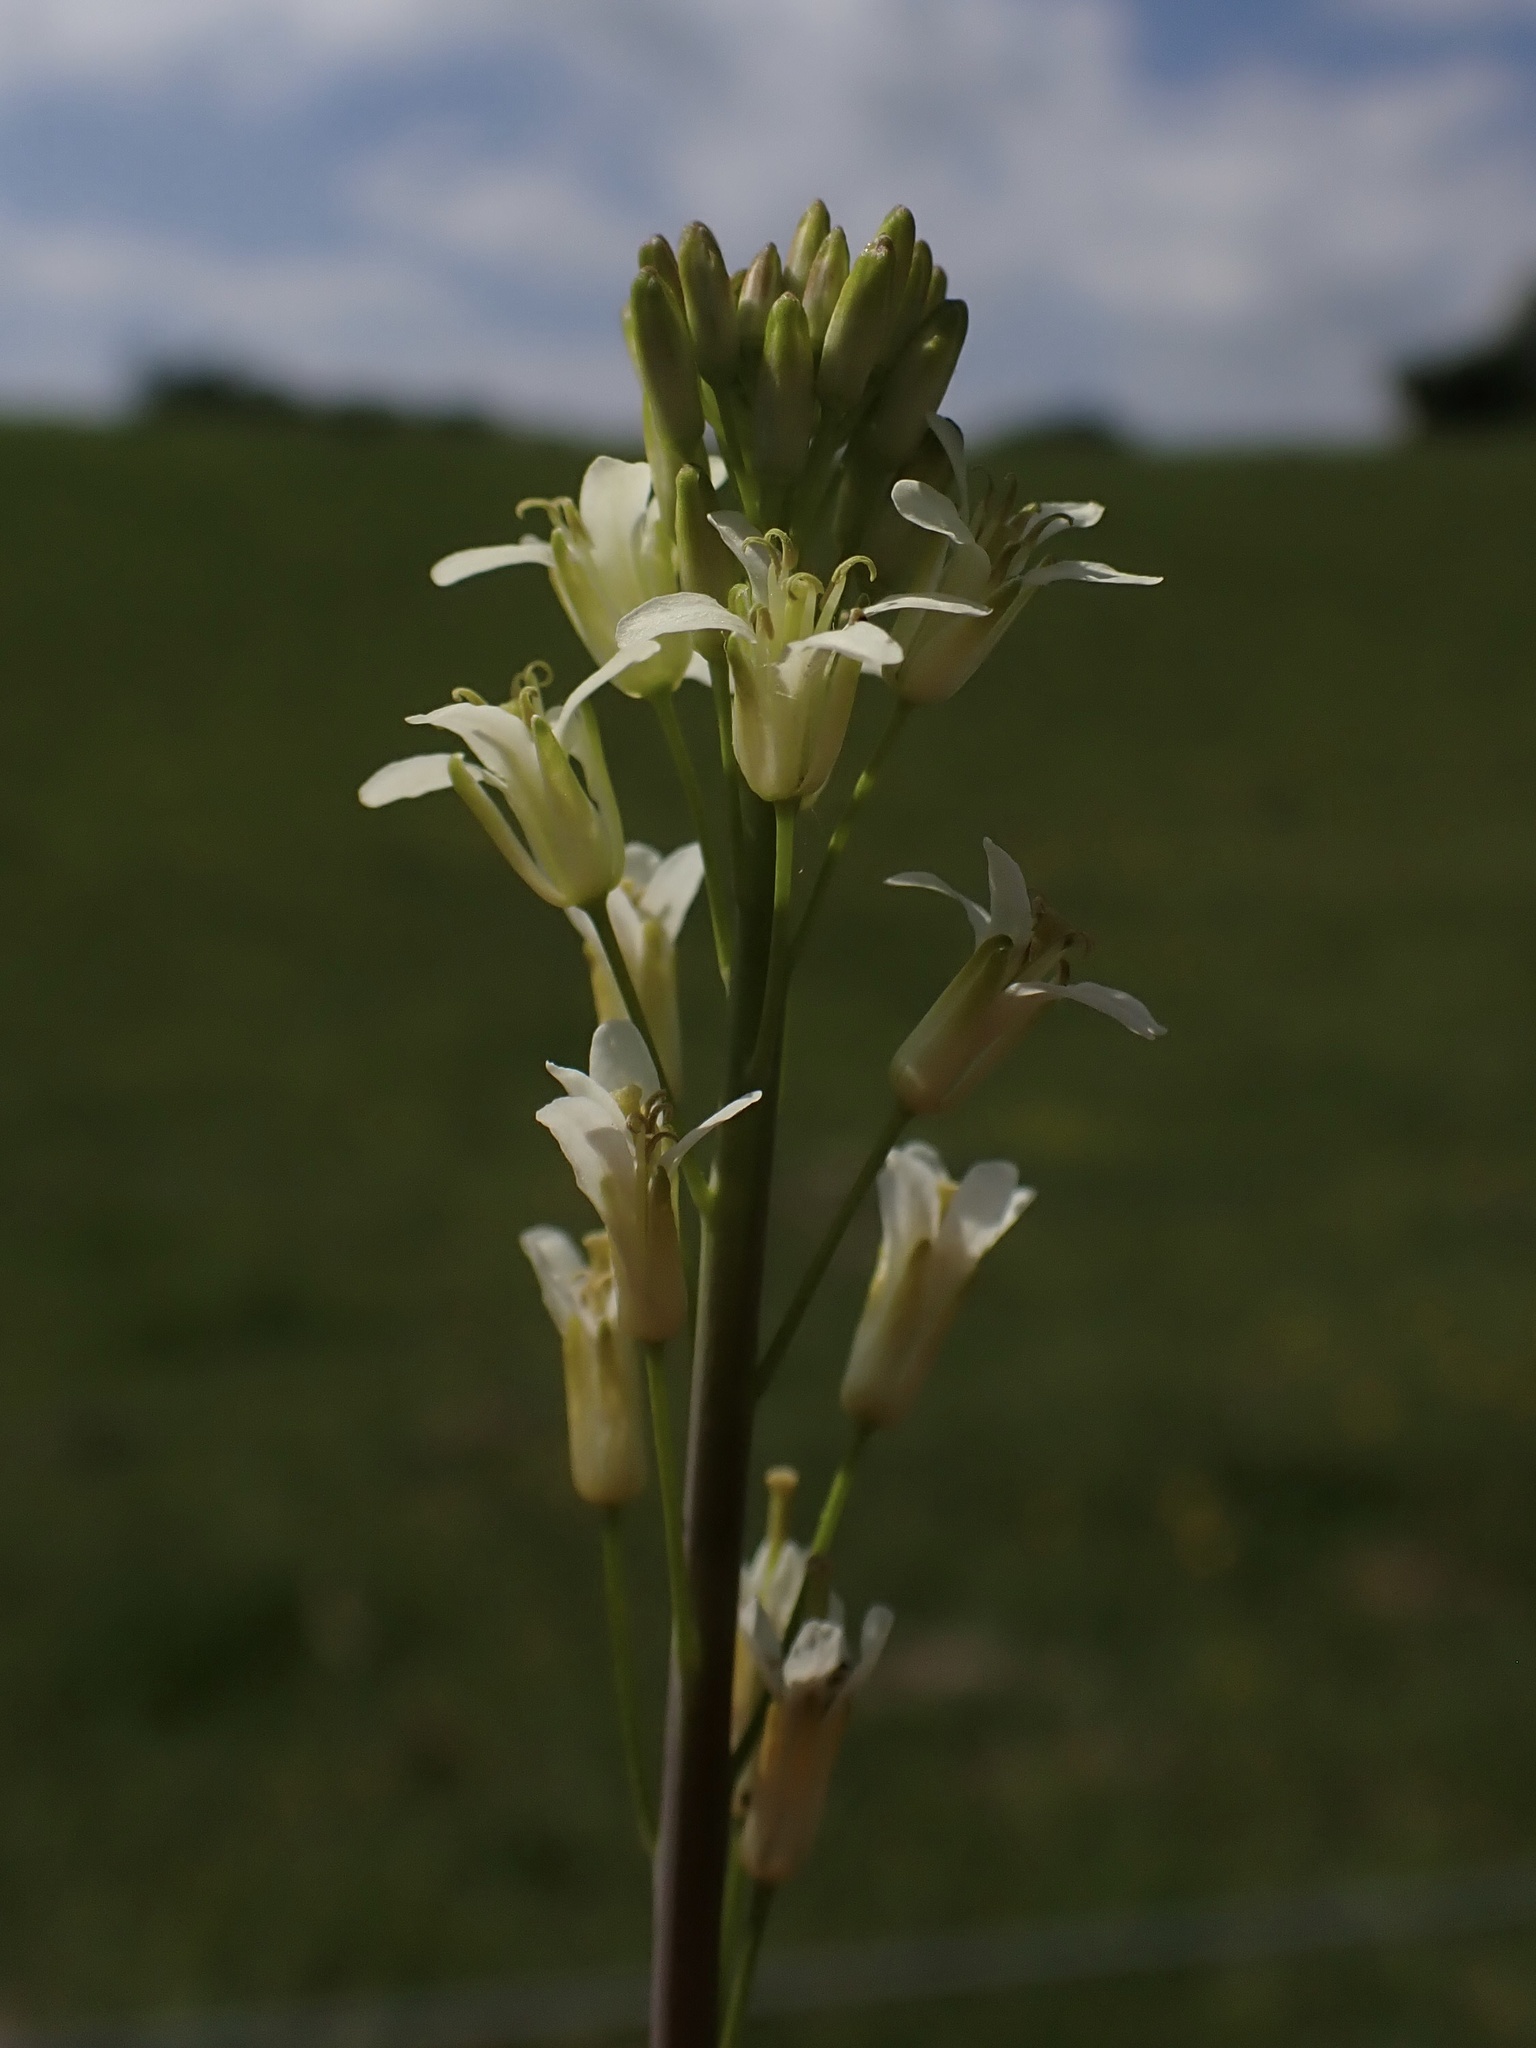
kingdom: Plantae
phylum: Tracheophyta
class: Magnoliopsida
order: Brassicales
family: Brassicaceae
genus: Turritis
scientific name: Turritis glabra
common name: Tower rockcress
